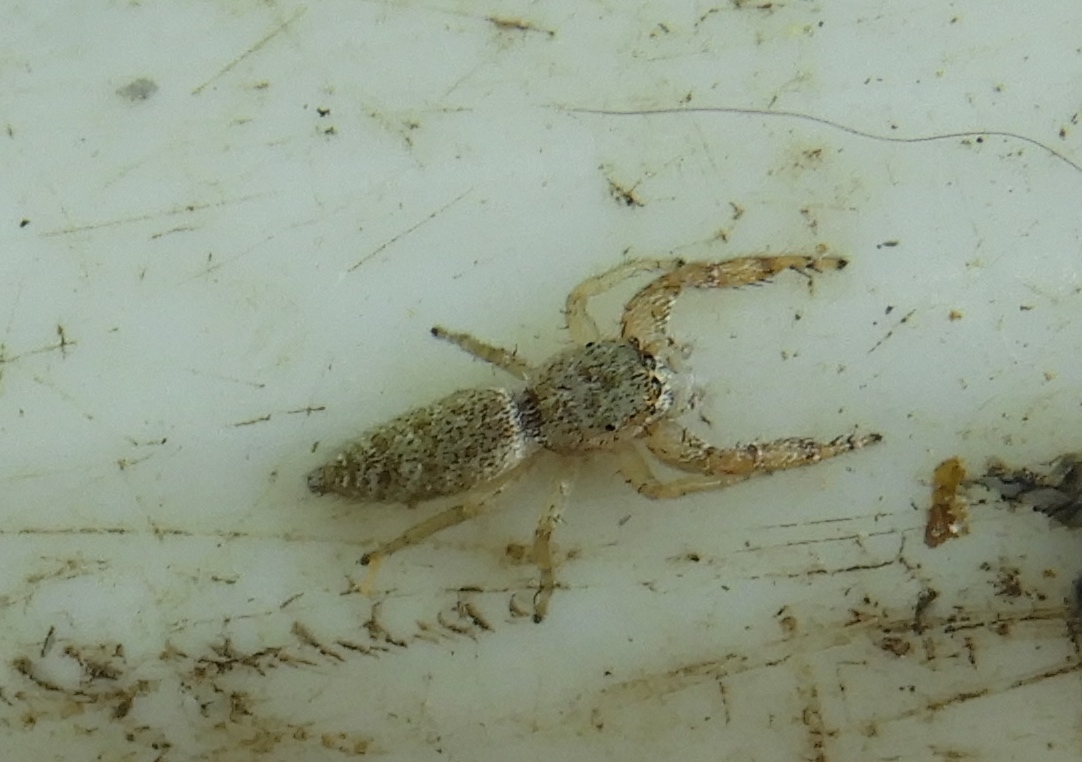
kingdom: Animalia
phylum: Arthropoda
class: Arachnida
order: Araneae
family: Salticidae
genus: Hentzia
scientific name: Hentzia palmarum
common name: Common hentz jumping spider
